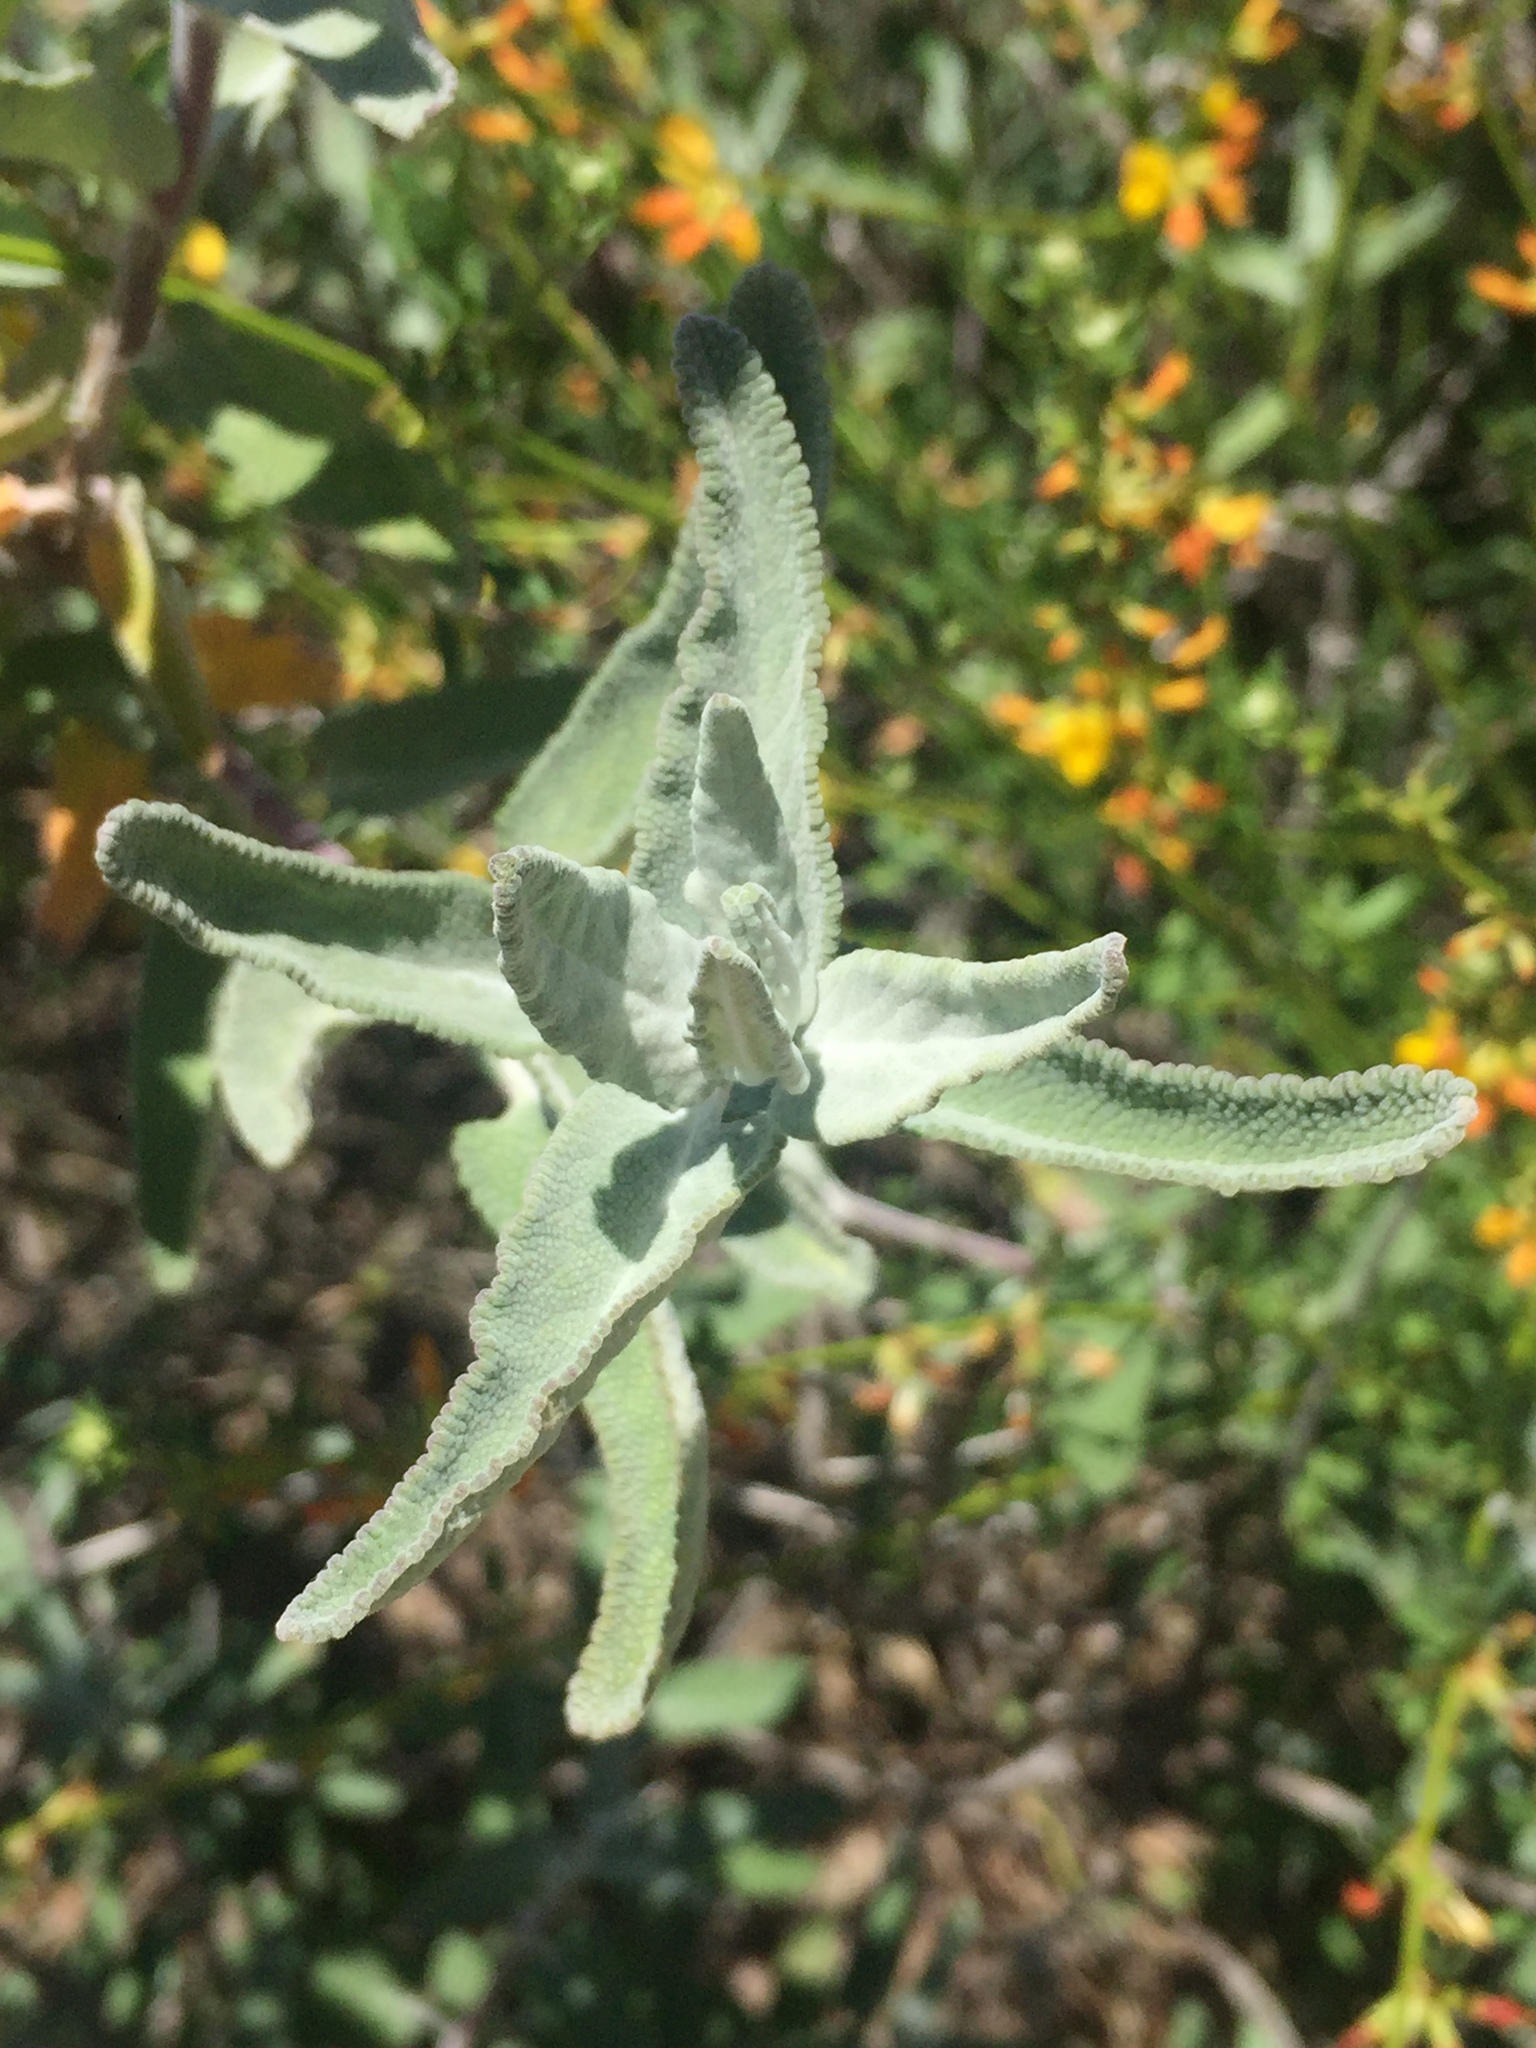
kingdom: Plantae
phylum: Tracheophyta
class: Magnoliopsida
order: Lamiales
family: Lamiaceae
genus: Salvia
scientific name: Salvia leucophylla
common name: Purple sage
